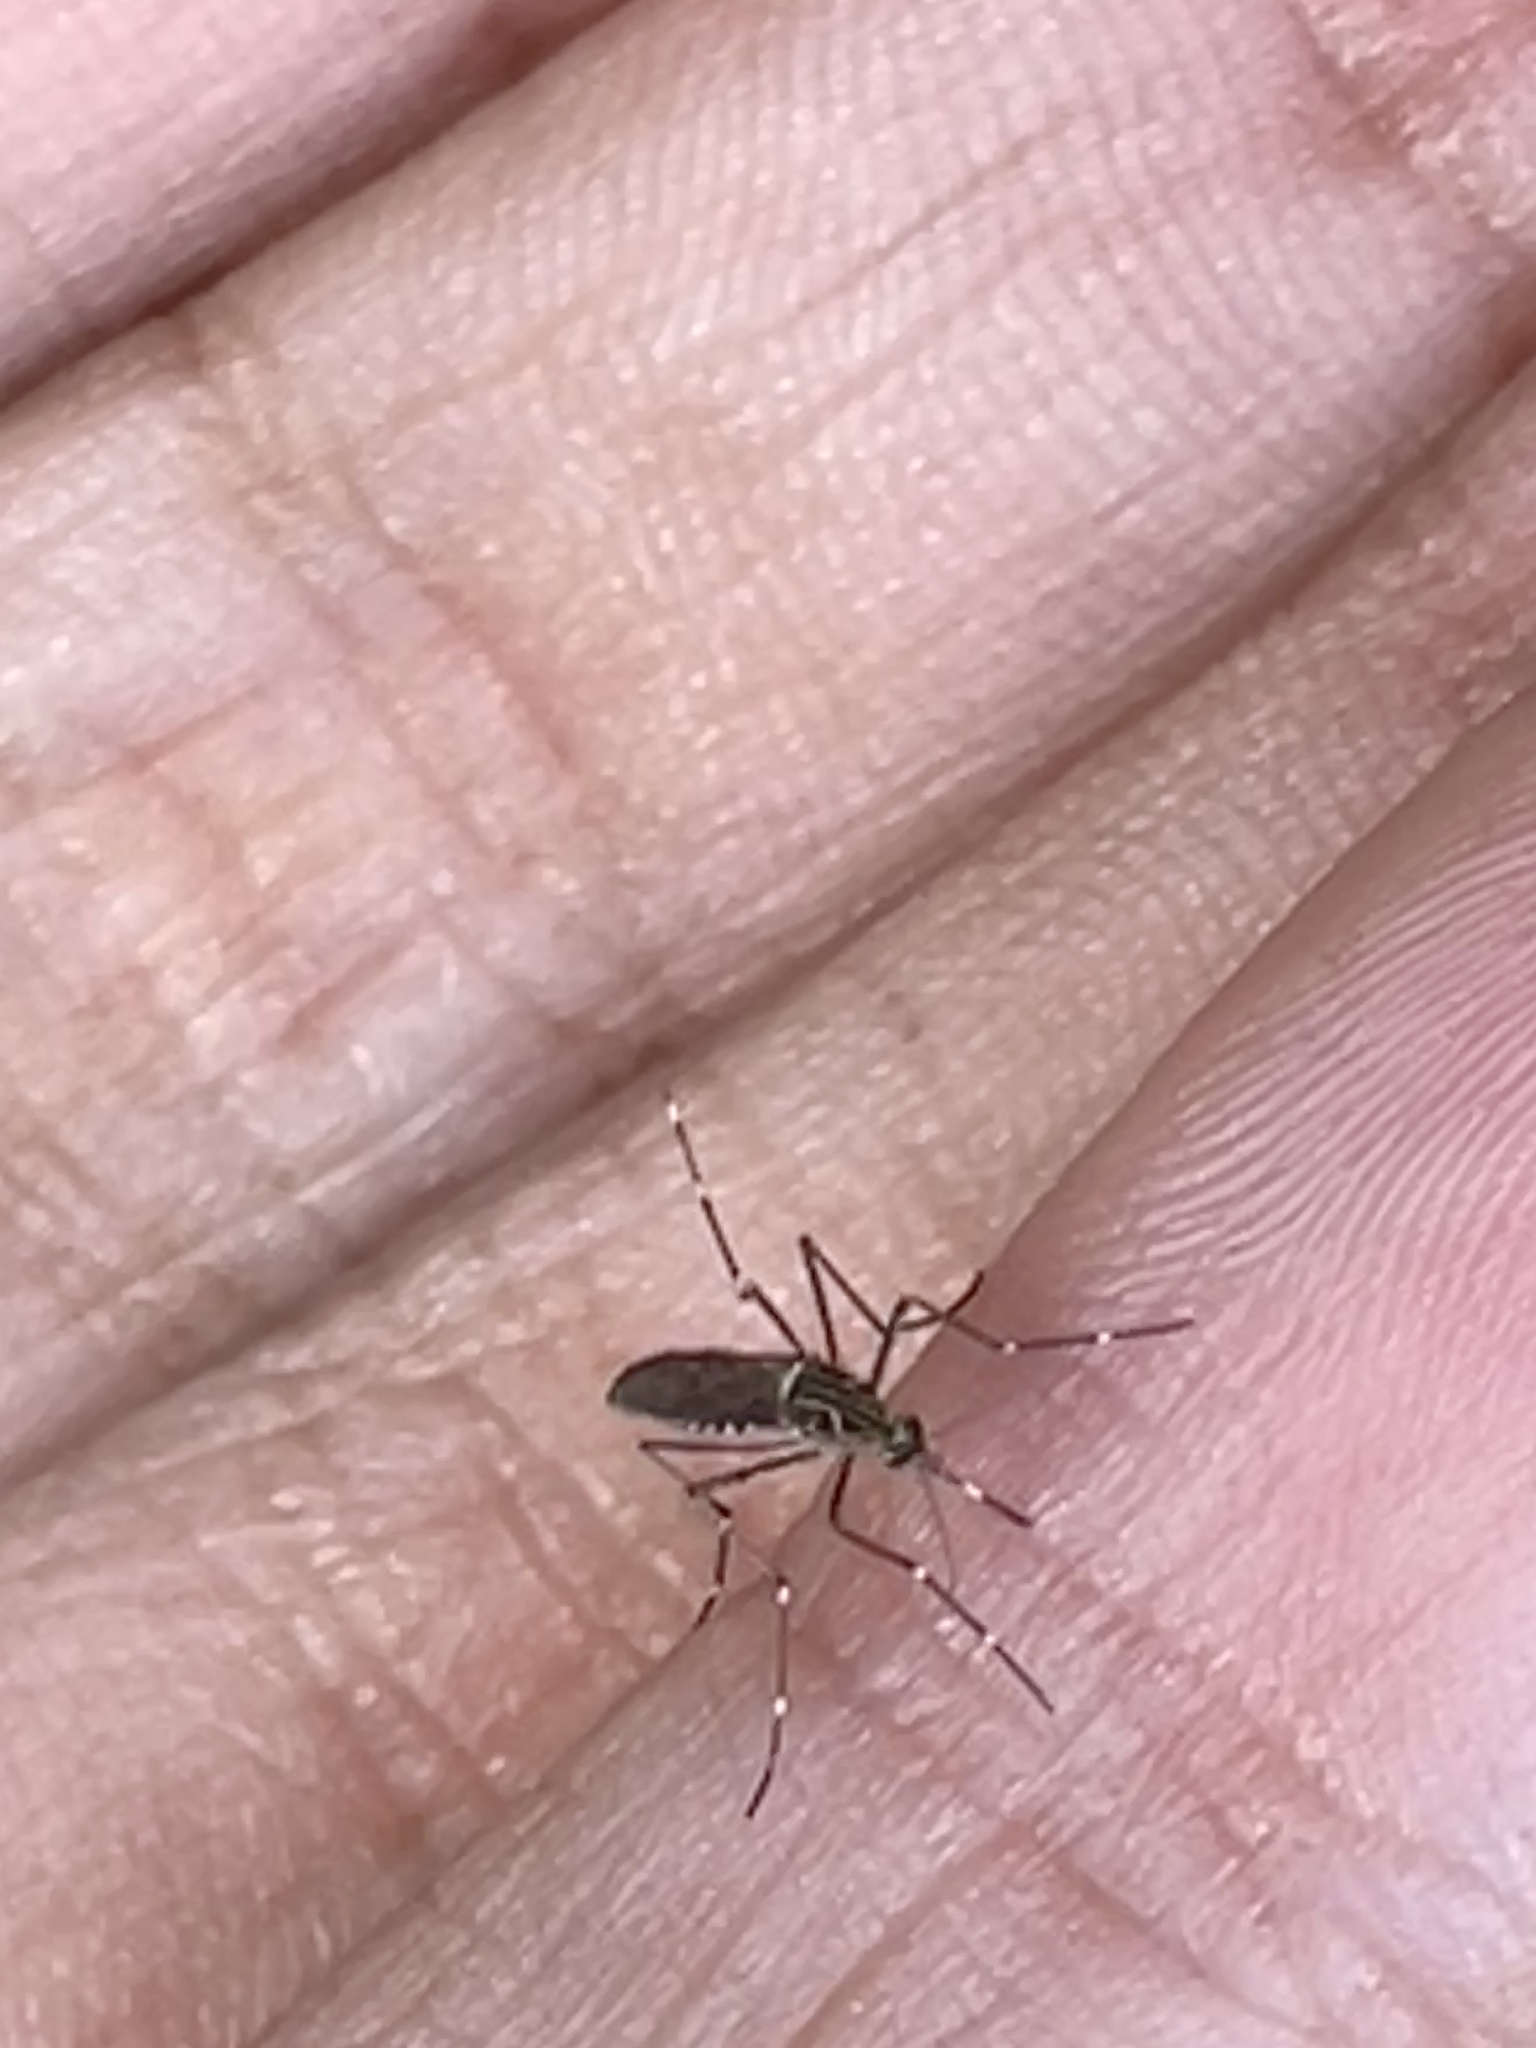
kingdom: Animalia
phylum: Arthropoda
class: Insecta
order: Diptera
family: Culicidae
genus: Aedes
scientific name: Aedes notoscriptus
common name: Australian backyard mosquito
